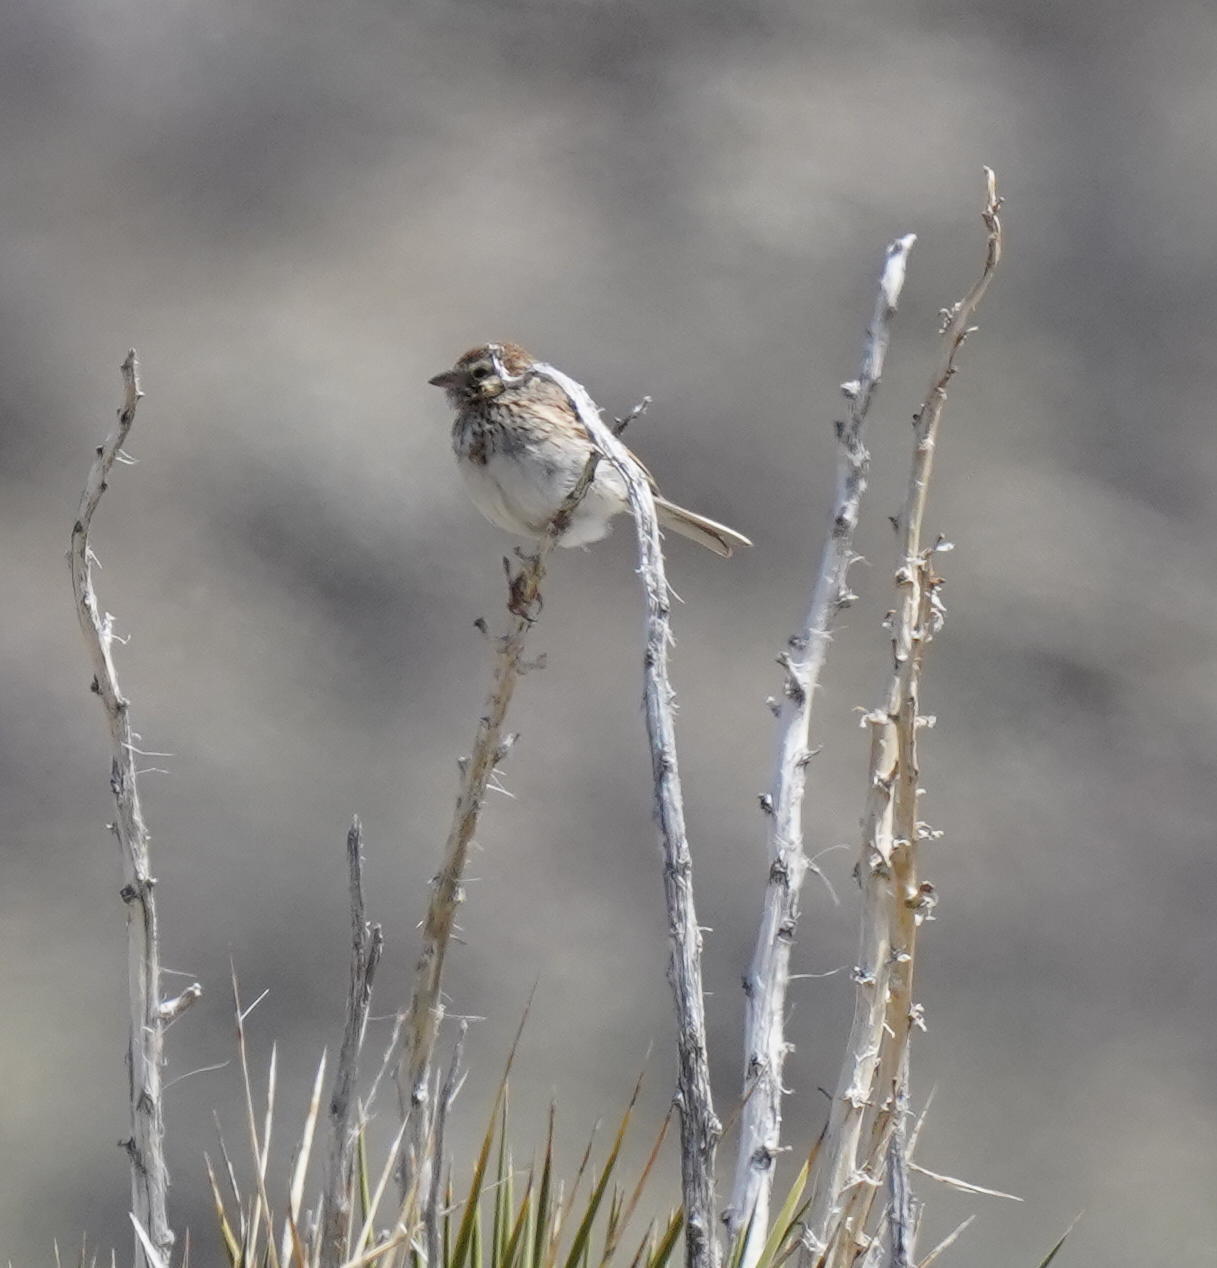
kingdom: Animalia
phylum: Chordata
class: Aves
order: Passeriformes
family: Passerellidae
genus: Pooecetes
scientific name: Pooecetes gramineus
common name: Vesper sparrow
